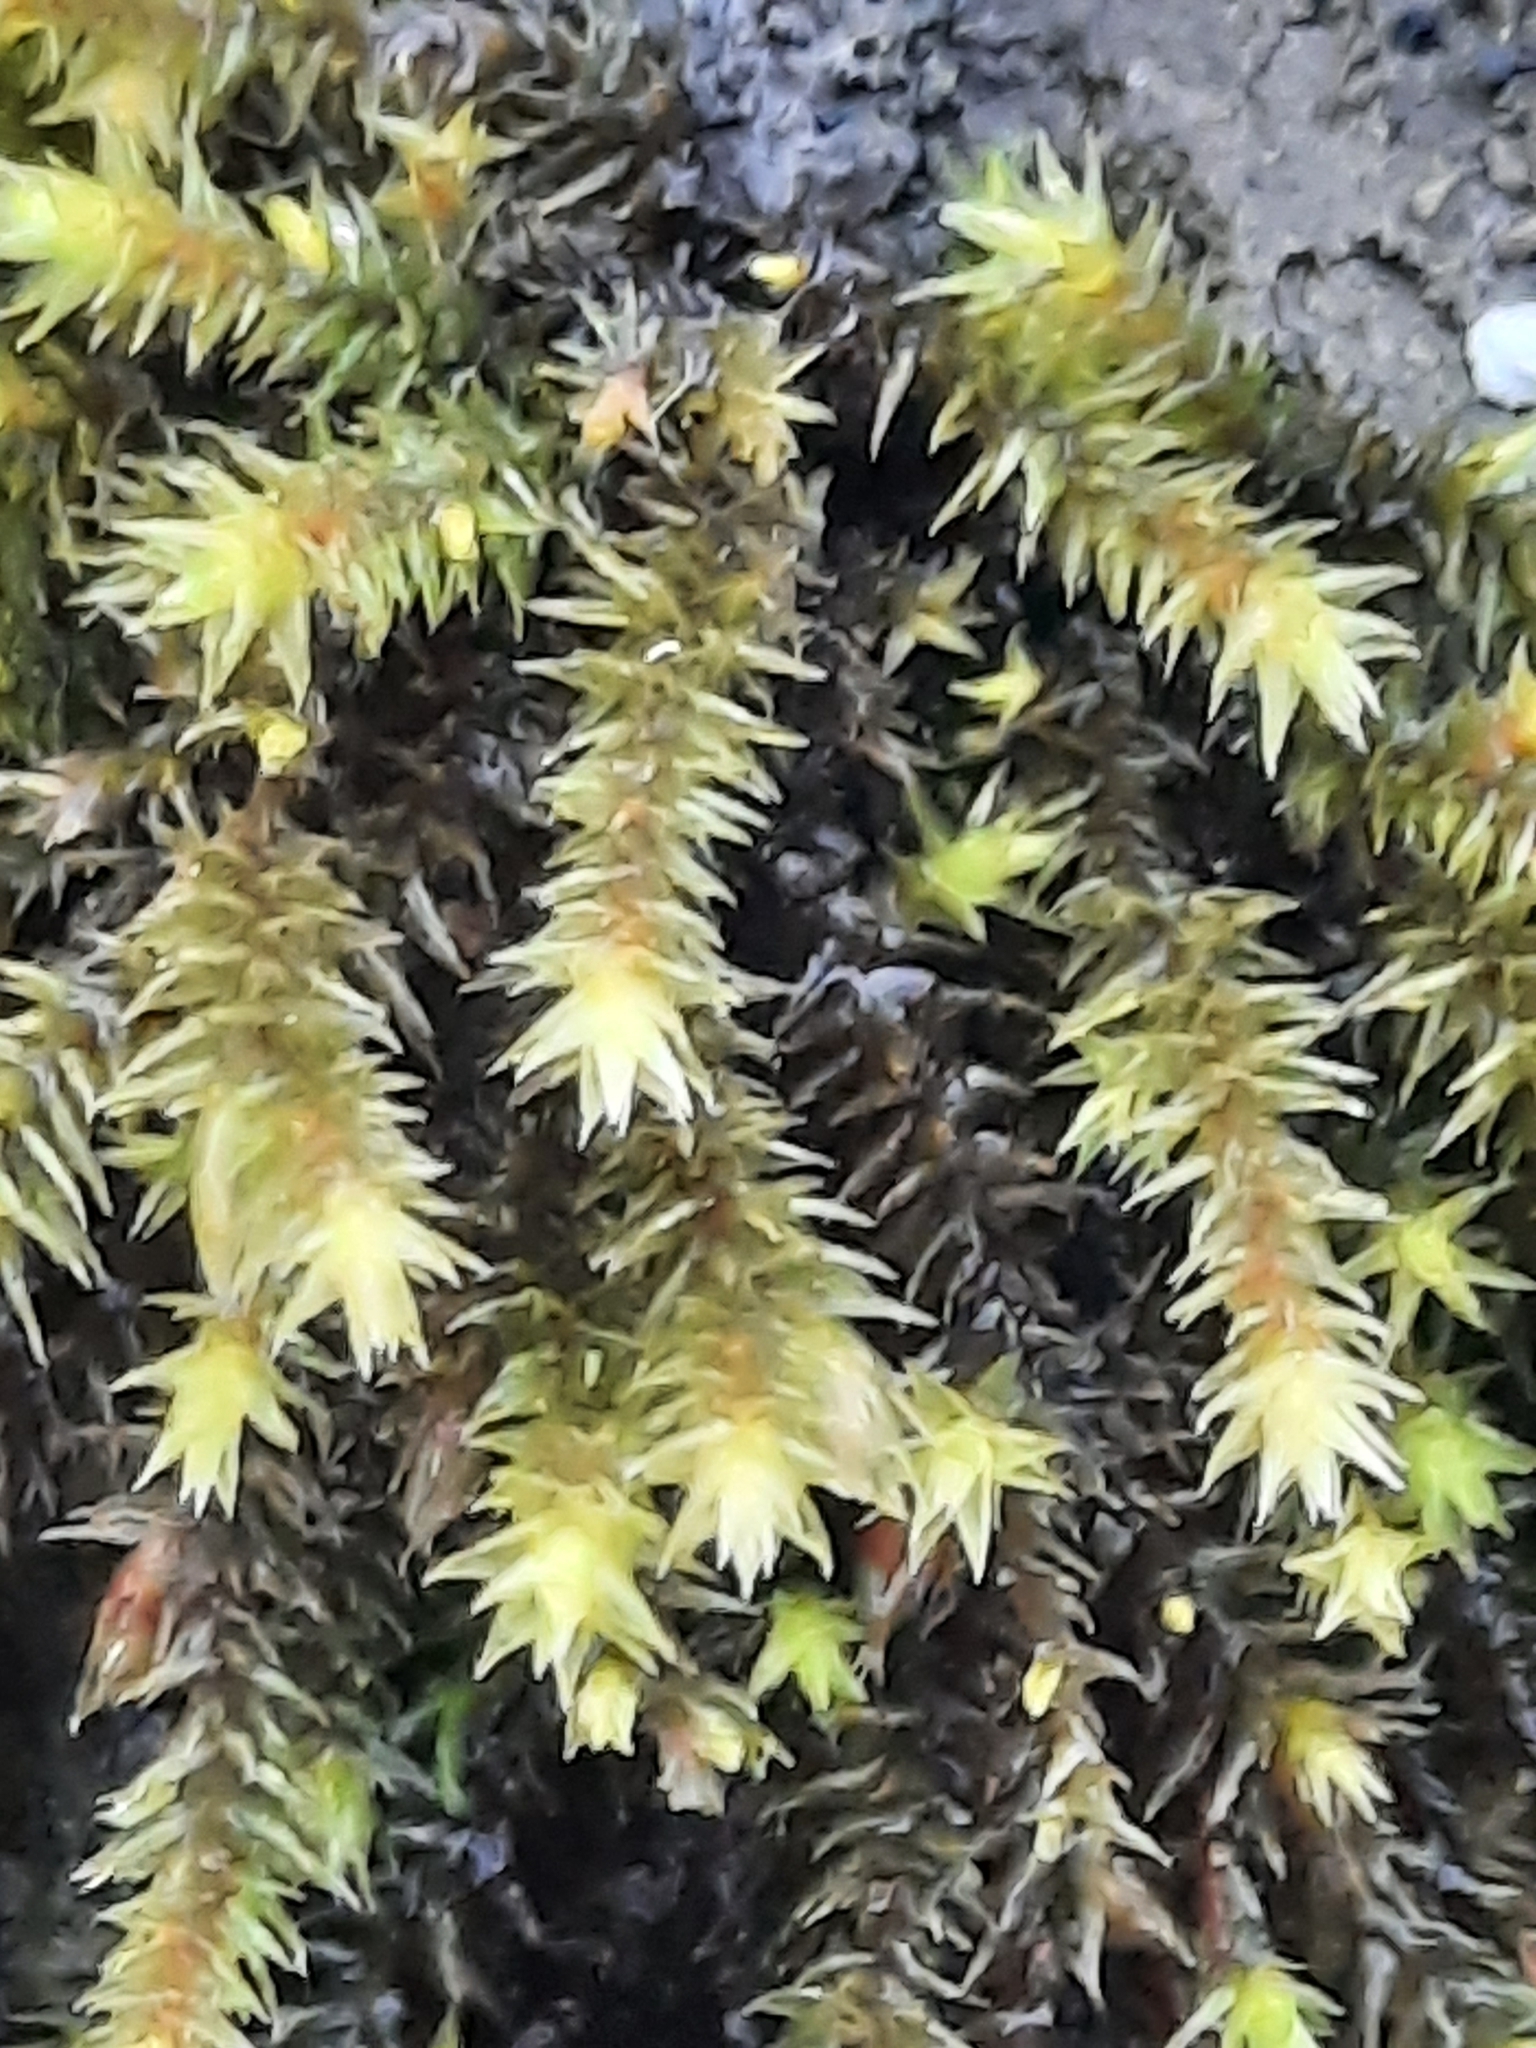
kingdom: Plantae
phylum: Bryophyta
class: Bryopsida
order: Hedwigiales
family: Hedwigiaceae
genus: Hedwigia
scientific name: Hedwigia ciliata
